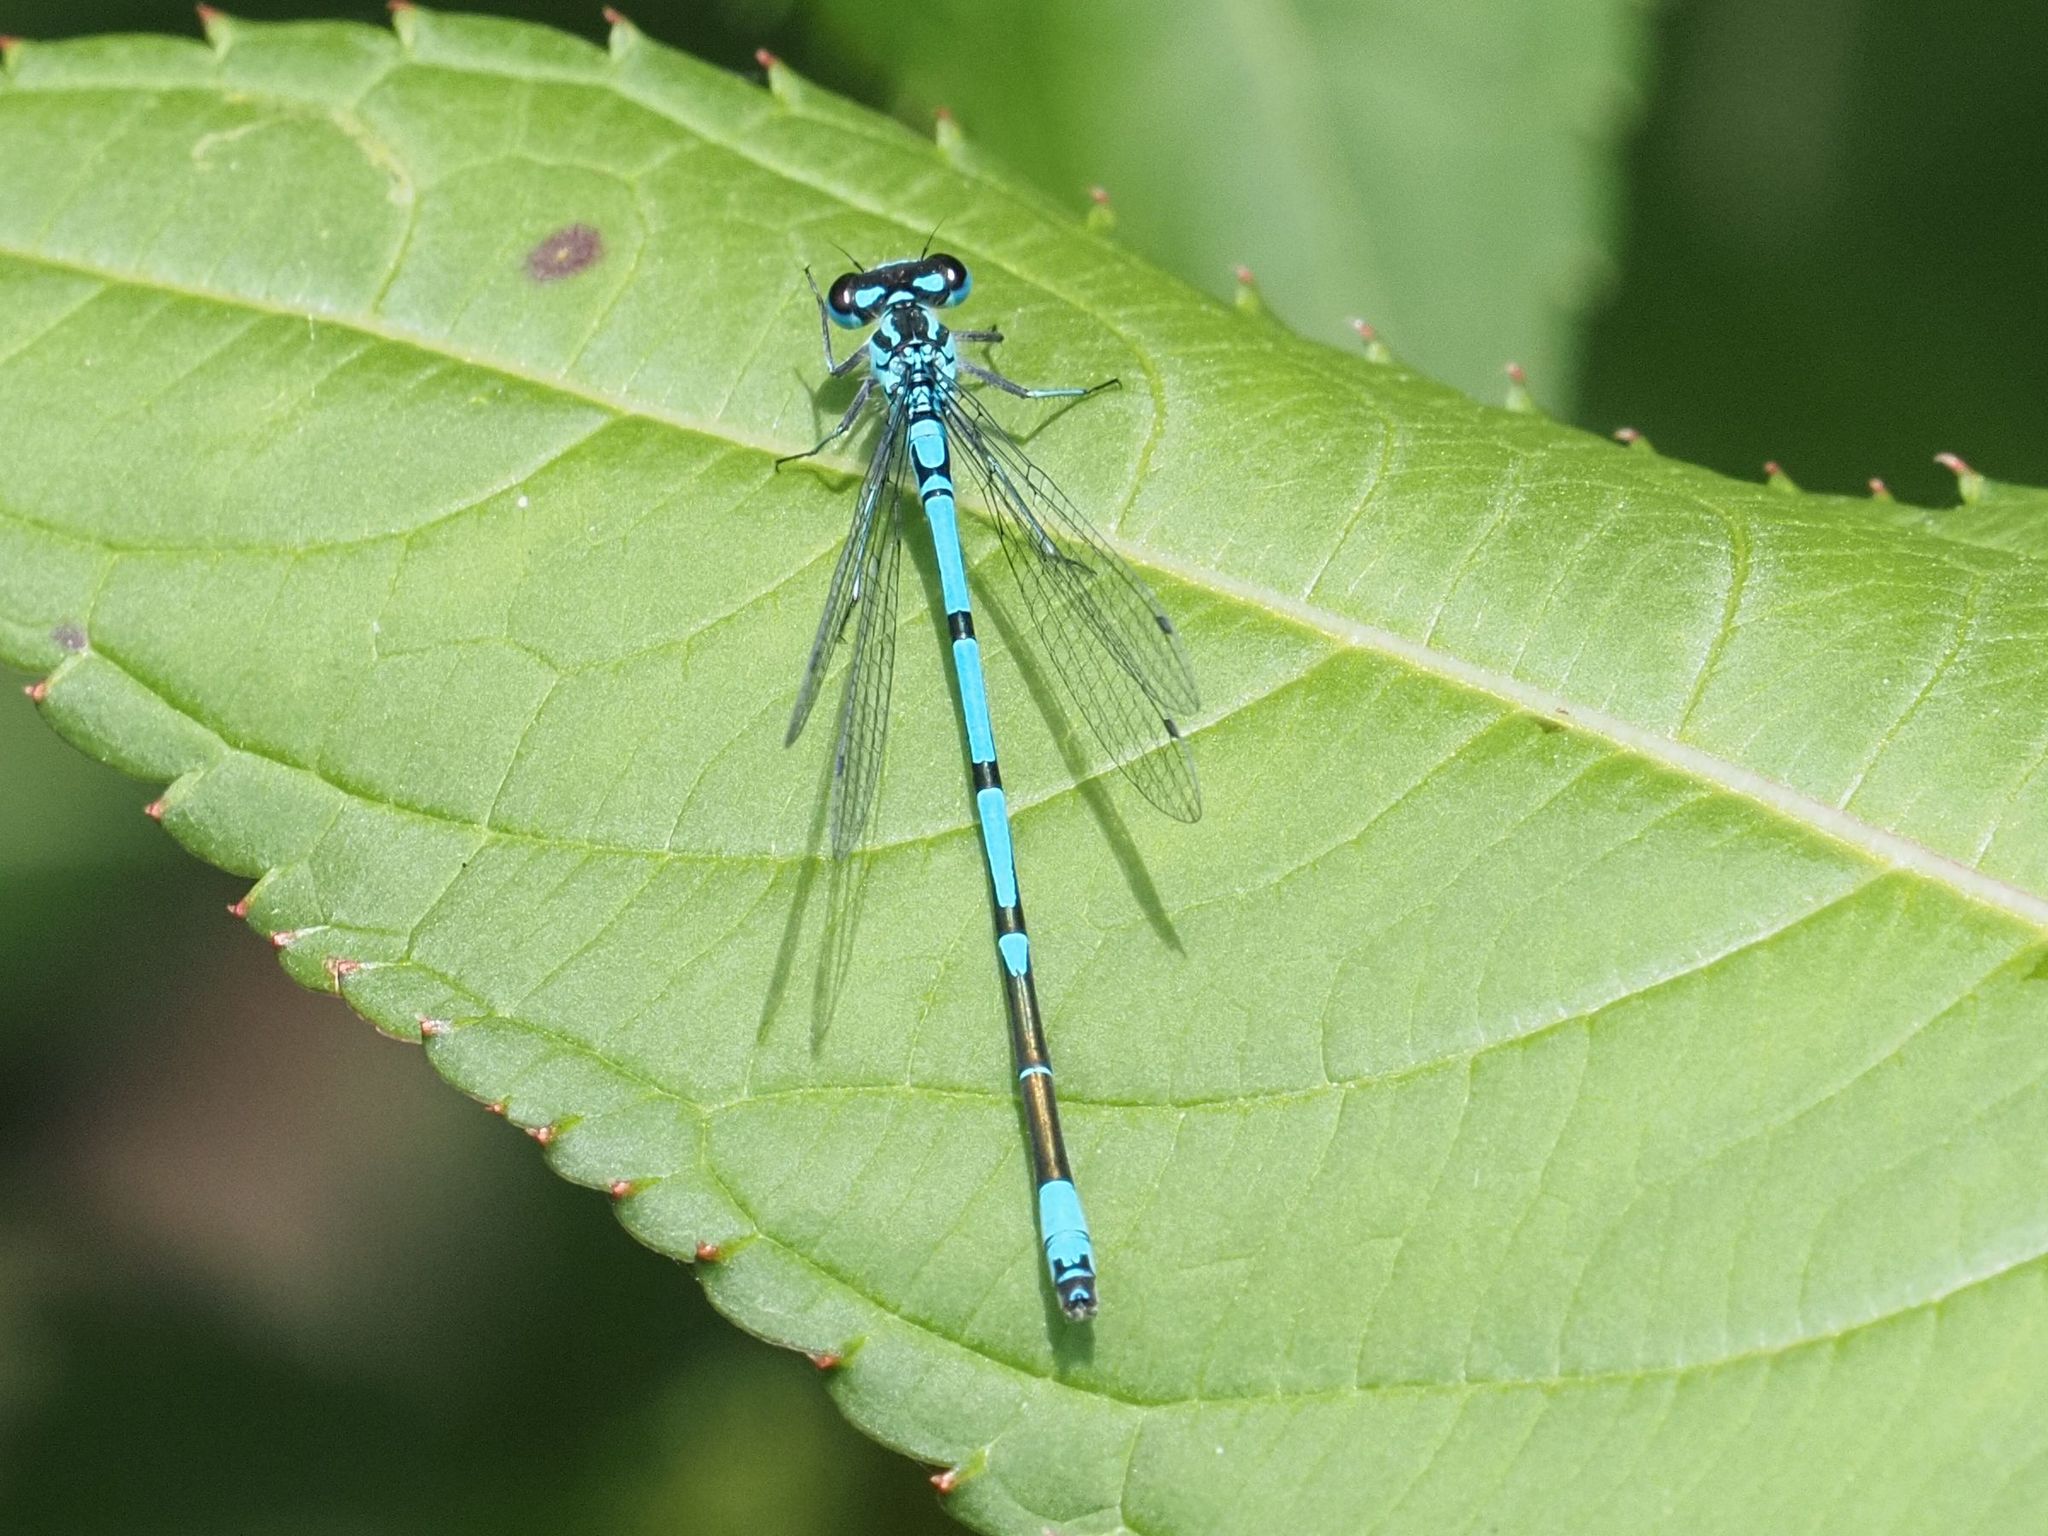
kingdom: Animalia
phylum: Arthropoda
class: Insecta
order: Odonata
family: Coenagrionidae
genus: Coenagrion
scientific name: Coenagrion puella
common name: Azure damselfly
